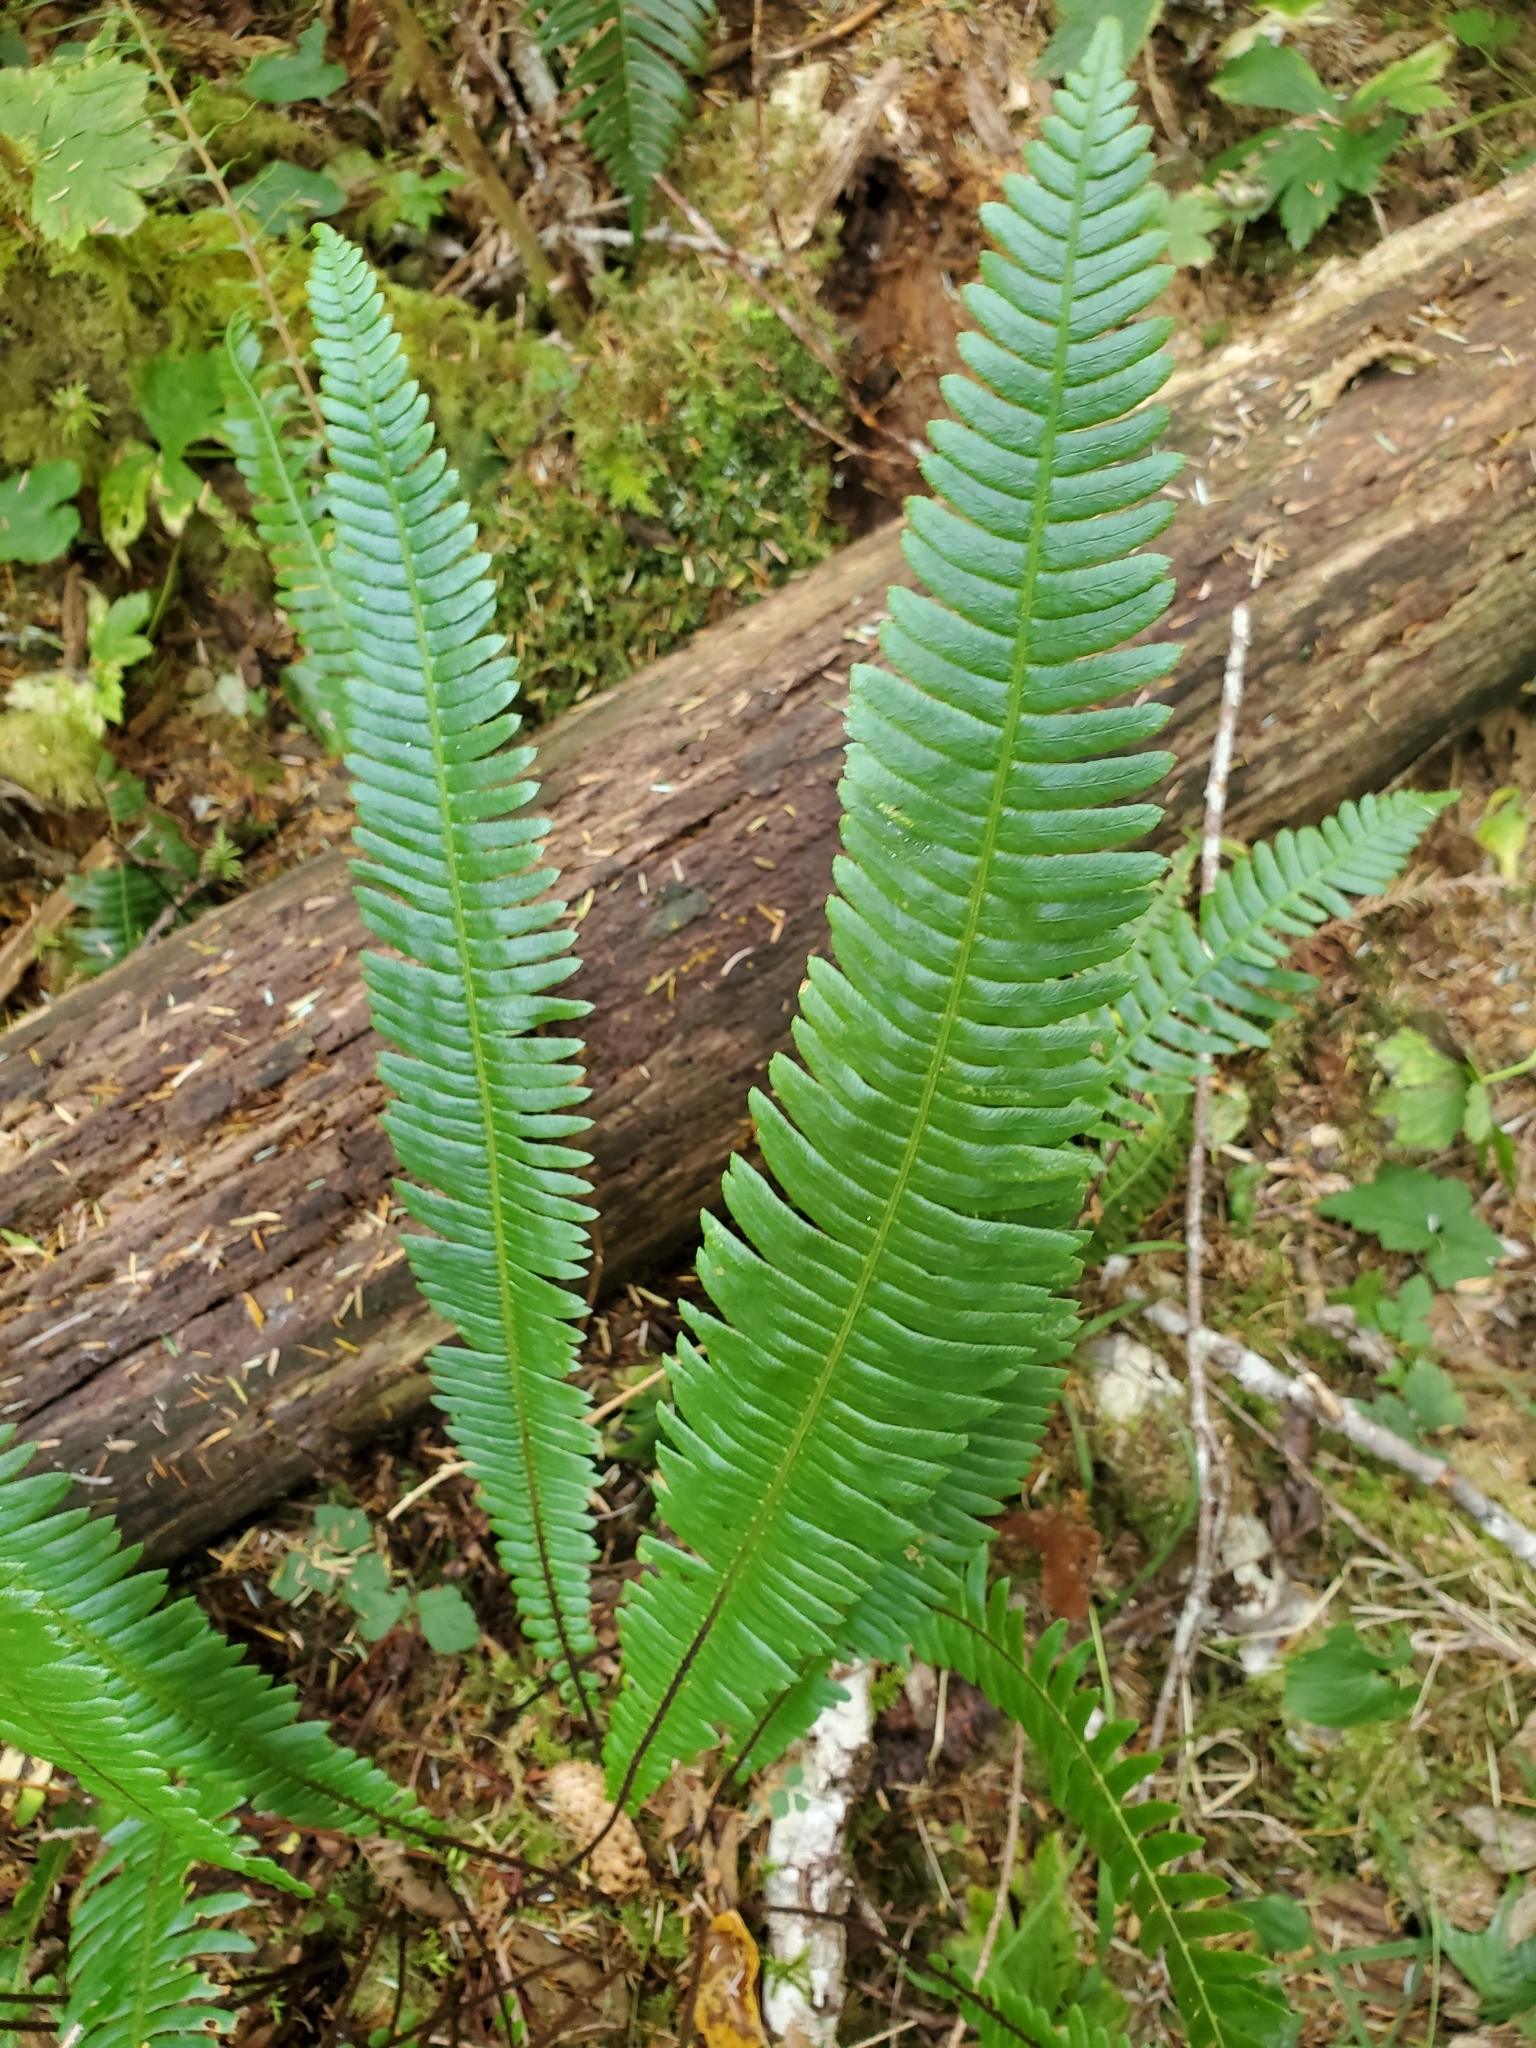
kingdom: Plantae
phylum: Tracheophyta
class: Polypodiopsida
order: Polypodiales
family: Blechnaceae
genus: Struthiopteris
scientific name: Struthiopteris spicant
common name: Deer fern
